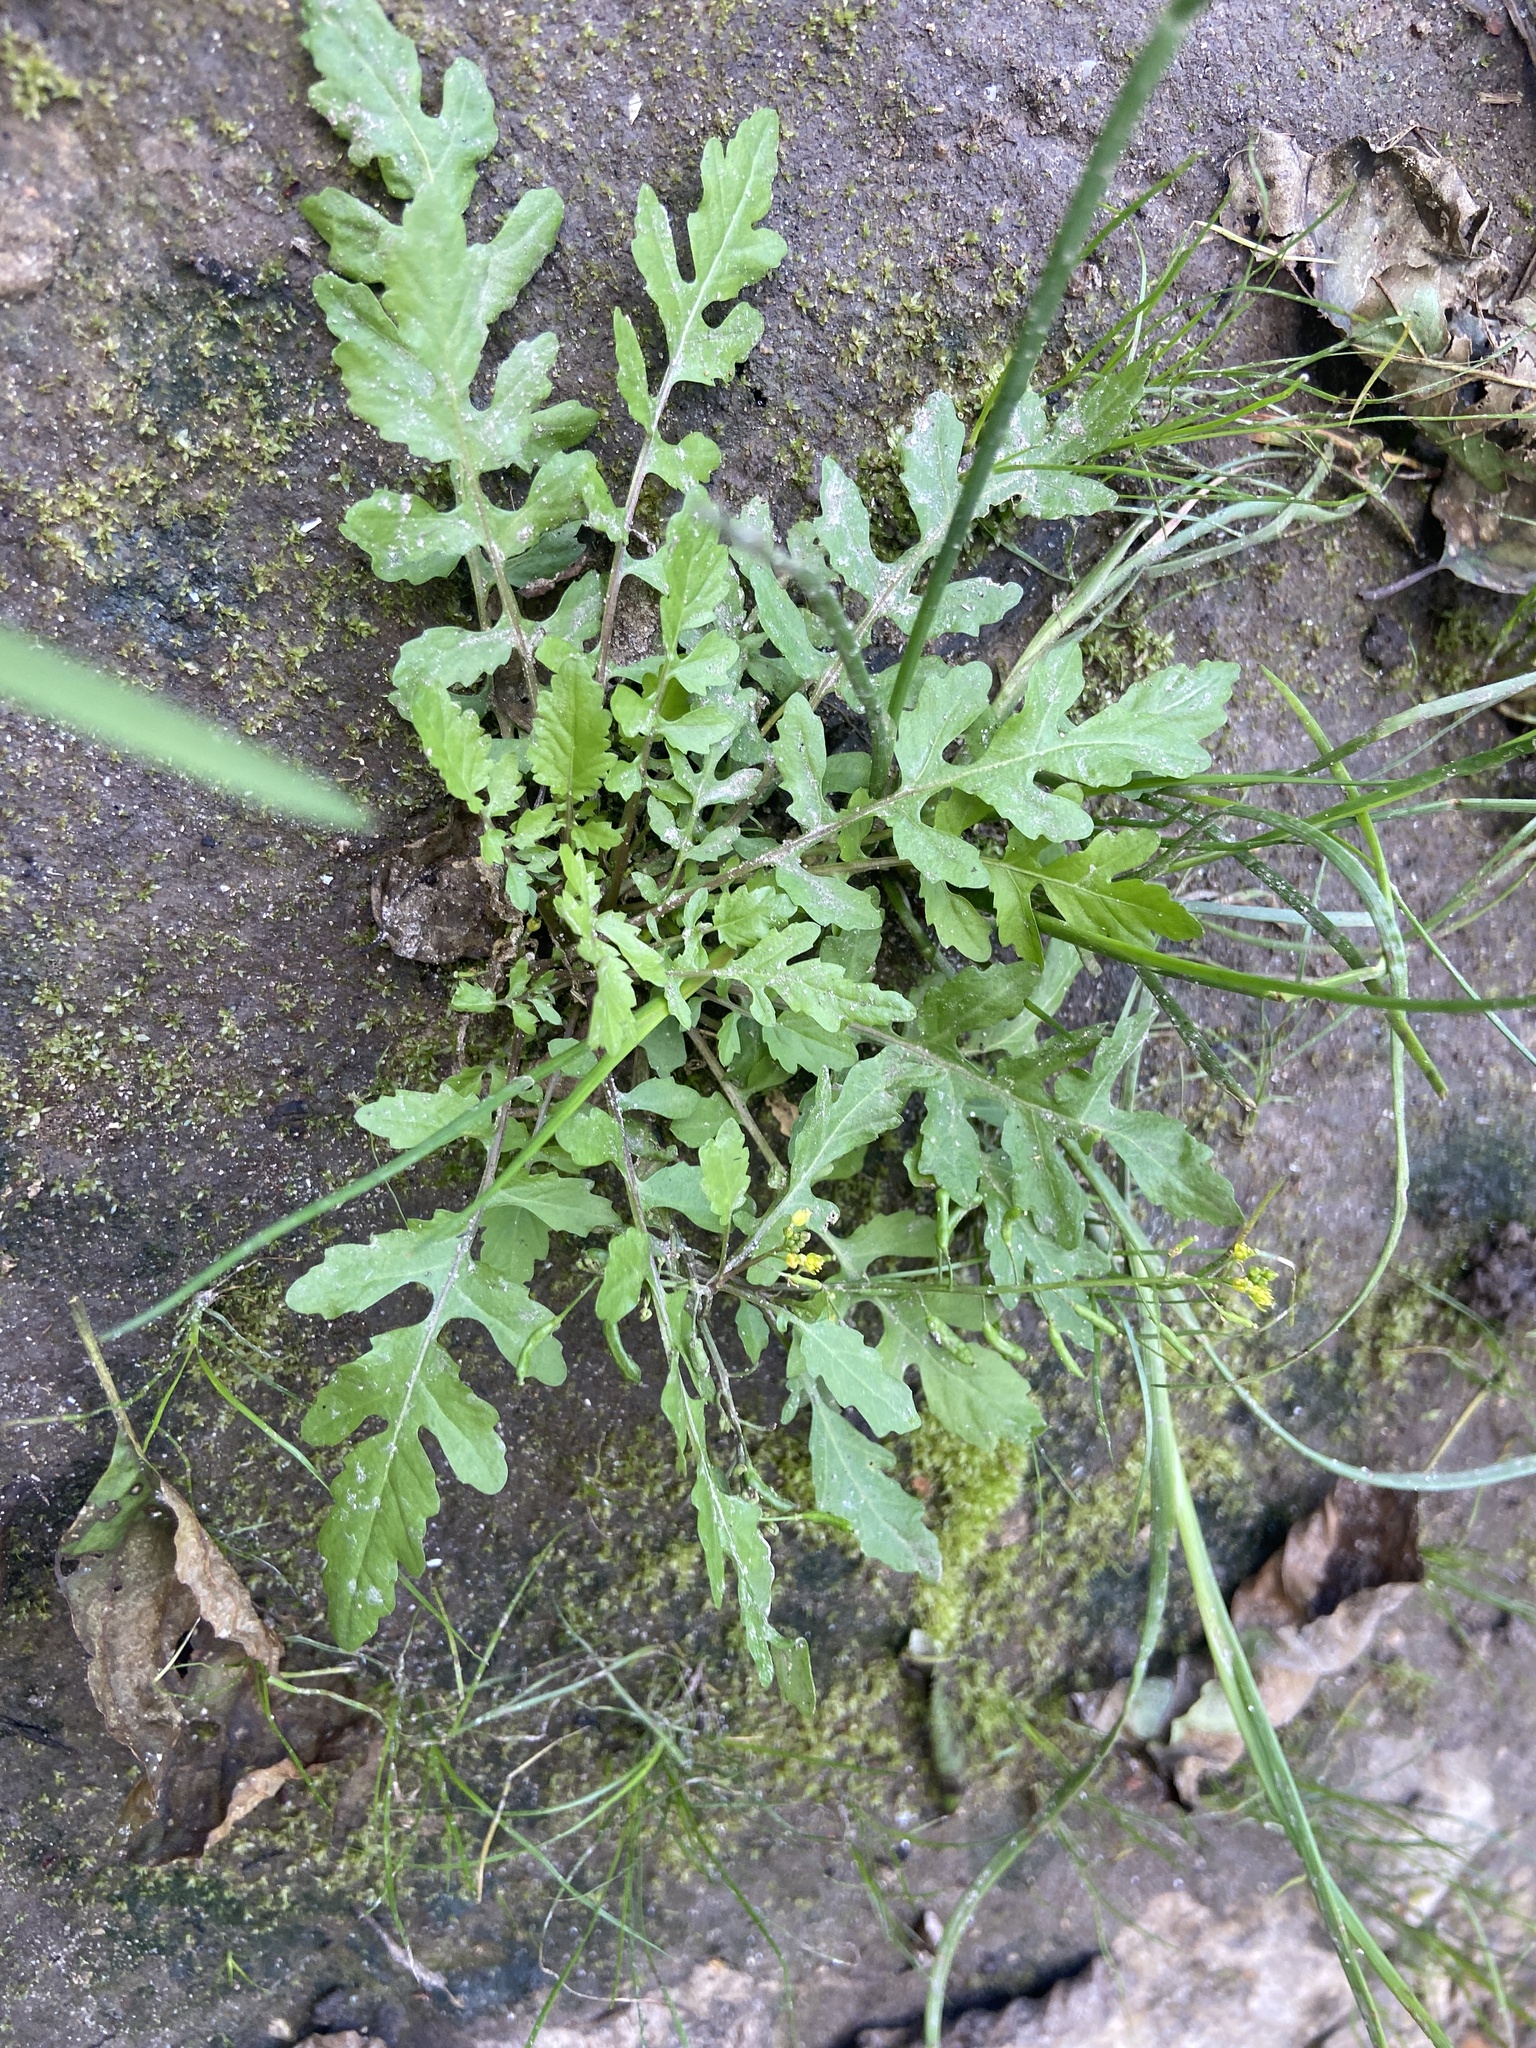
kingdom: Plantae
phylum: Tracheophyta
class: Magnoliopsida
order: Brassicales
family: Brassicaceae
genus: Rorippa
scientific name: Rorippa palustris
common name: Marsh yellow-cress
